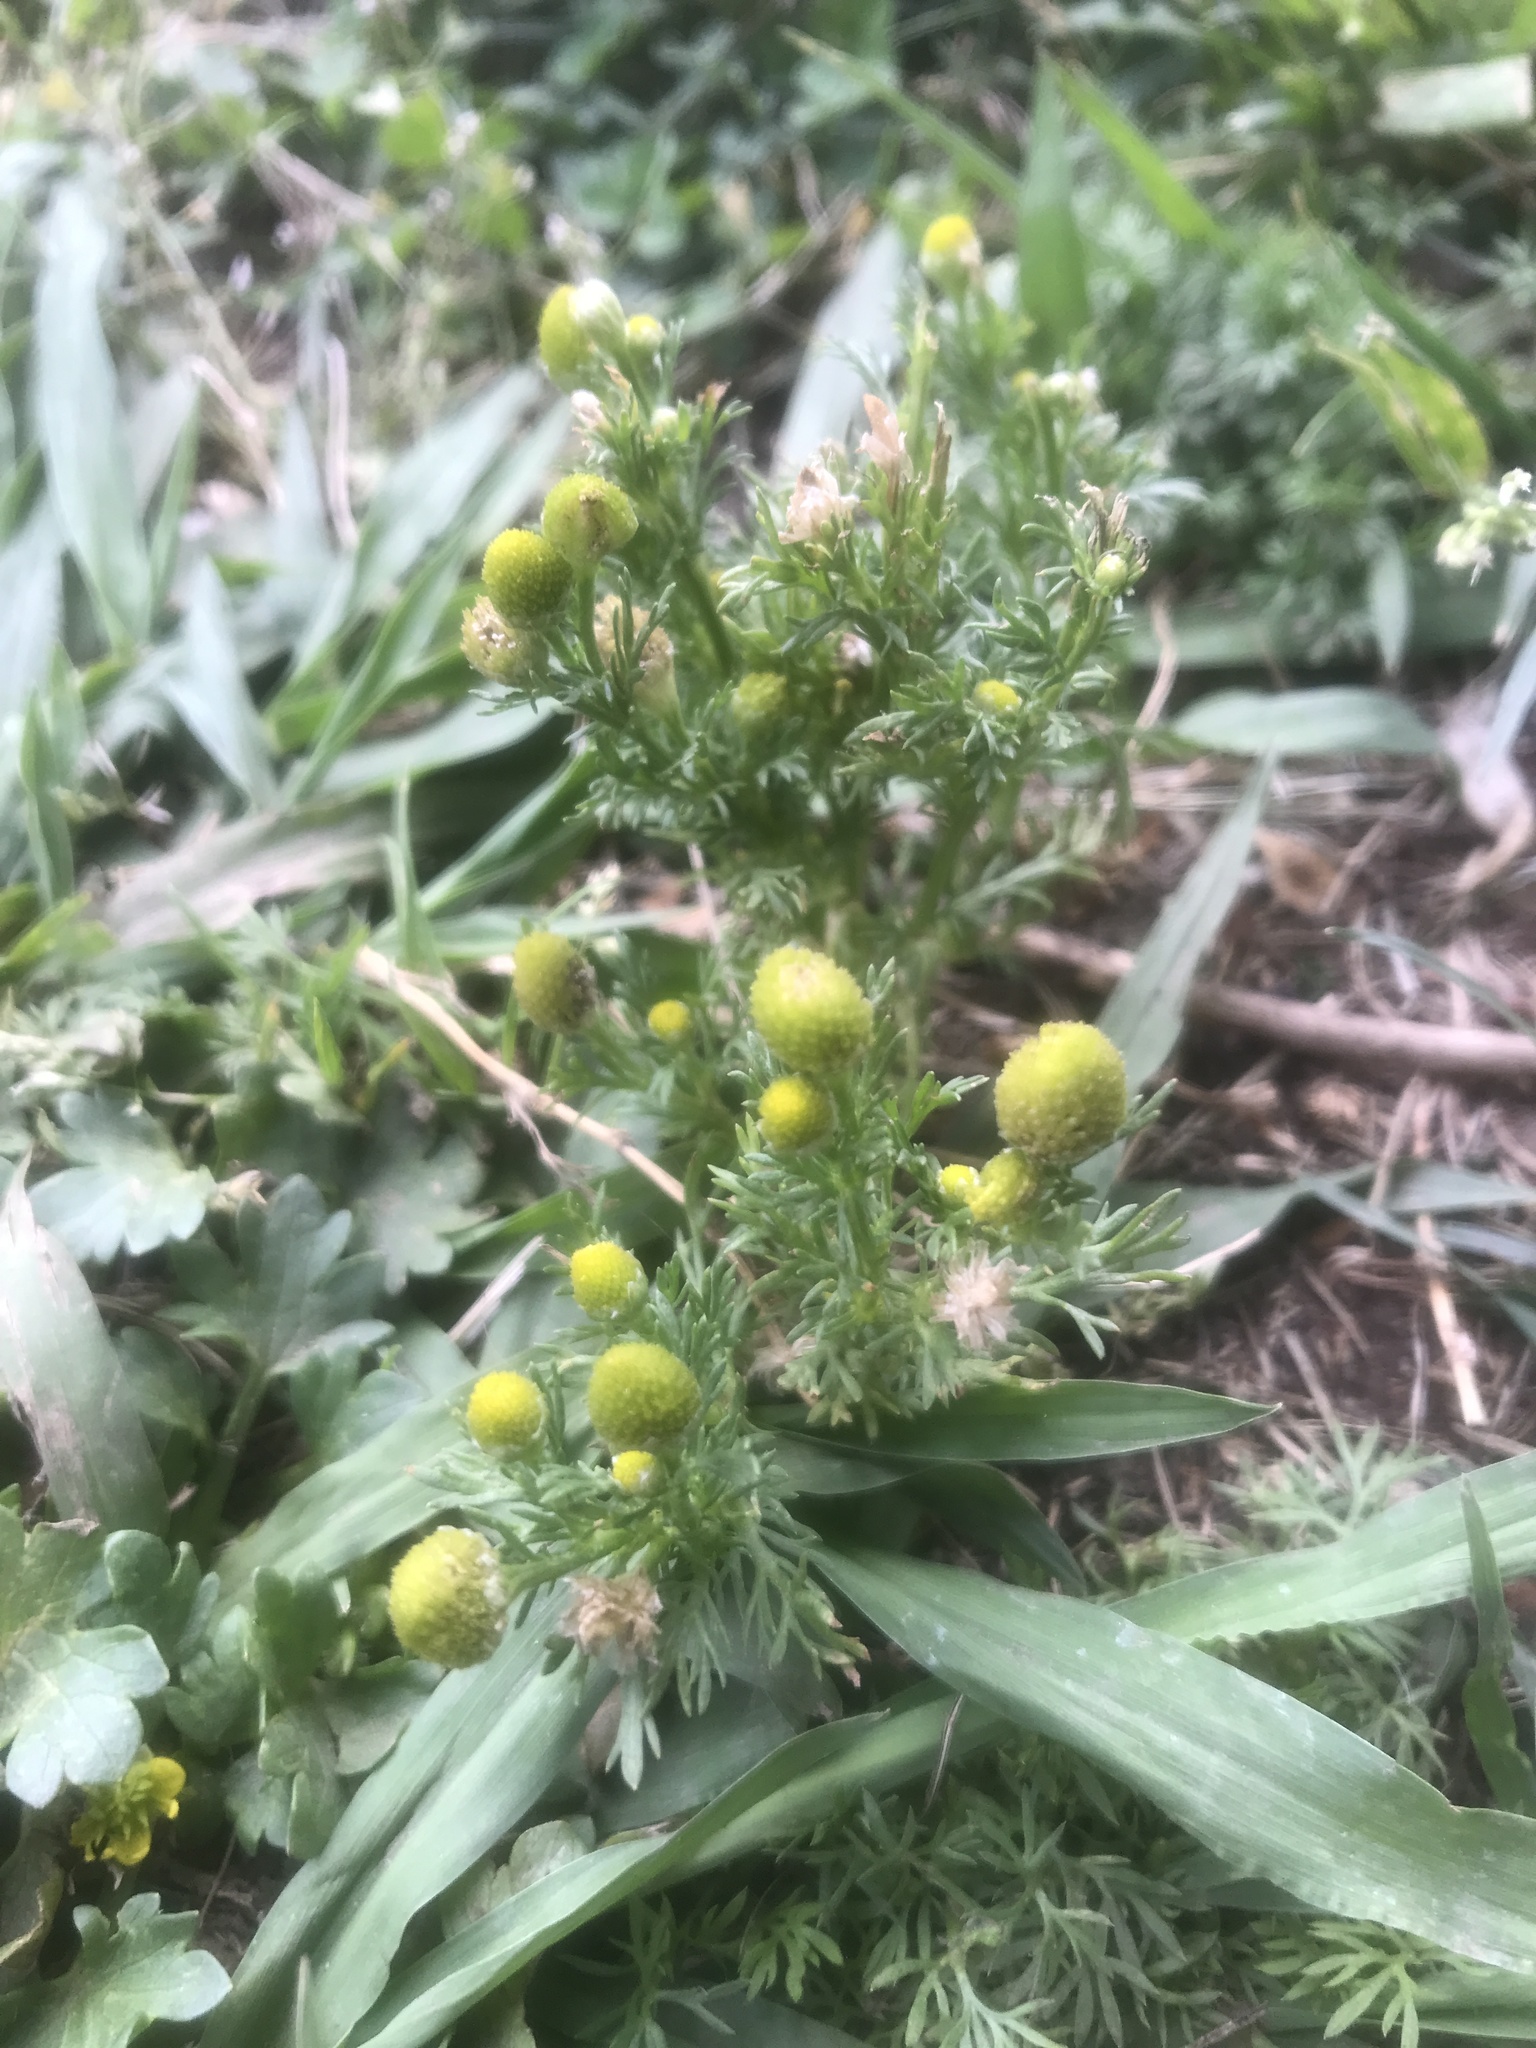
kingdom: Plantae
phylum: Tracheophyta
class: Magnoliopsida
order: Asterales
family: Asteraceae
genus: Matricaria
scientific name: Matricaria discoidea
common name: Disc mayweed
